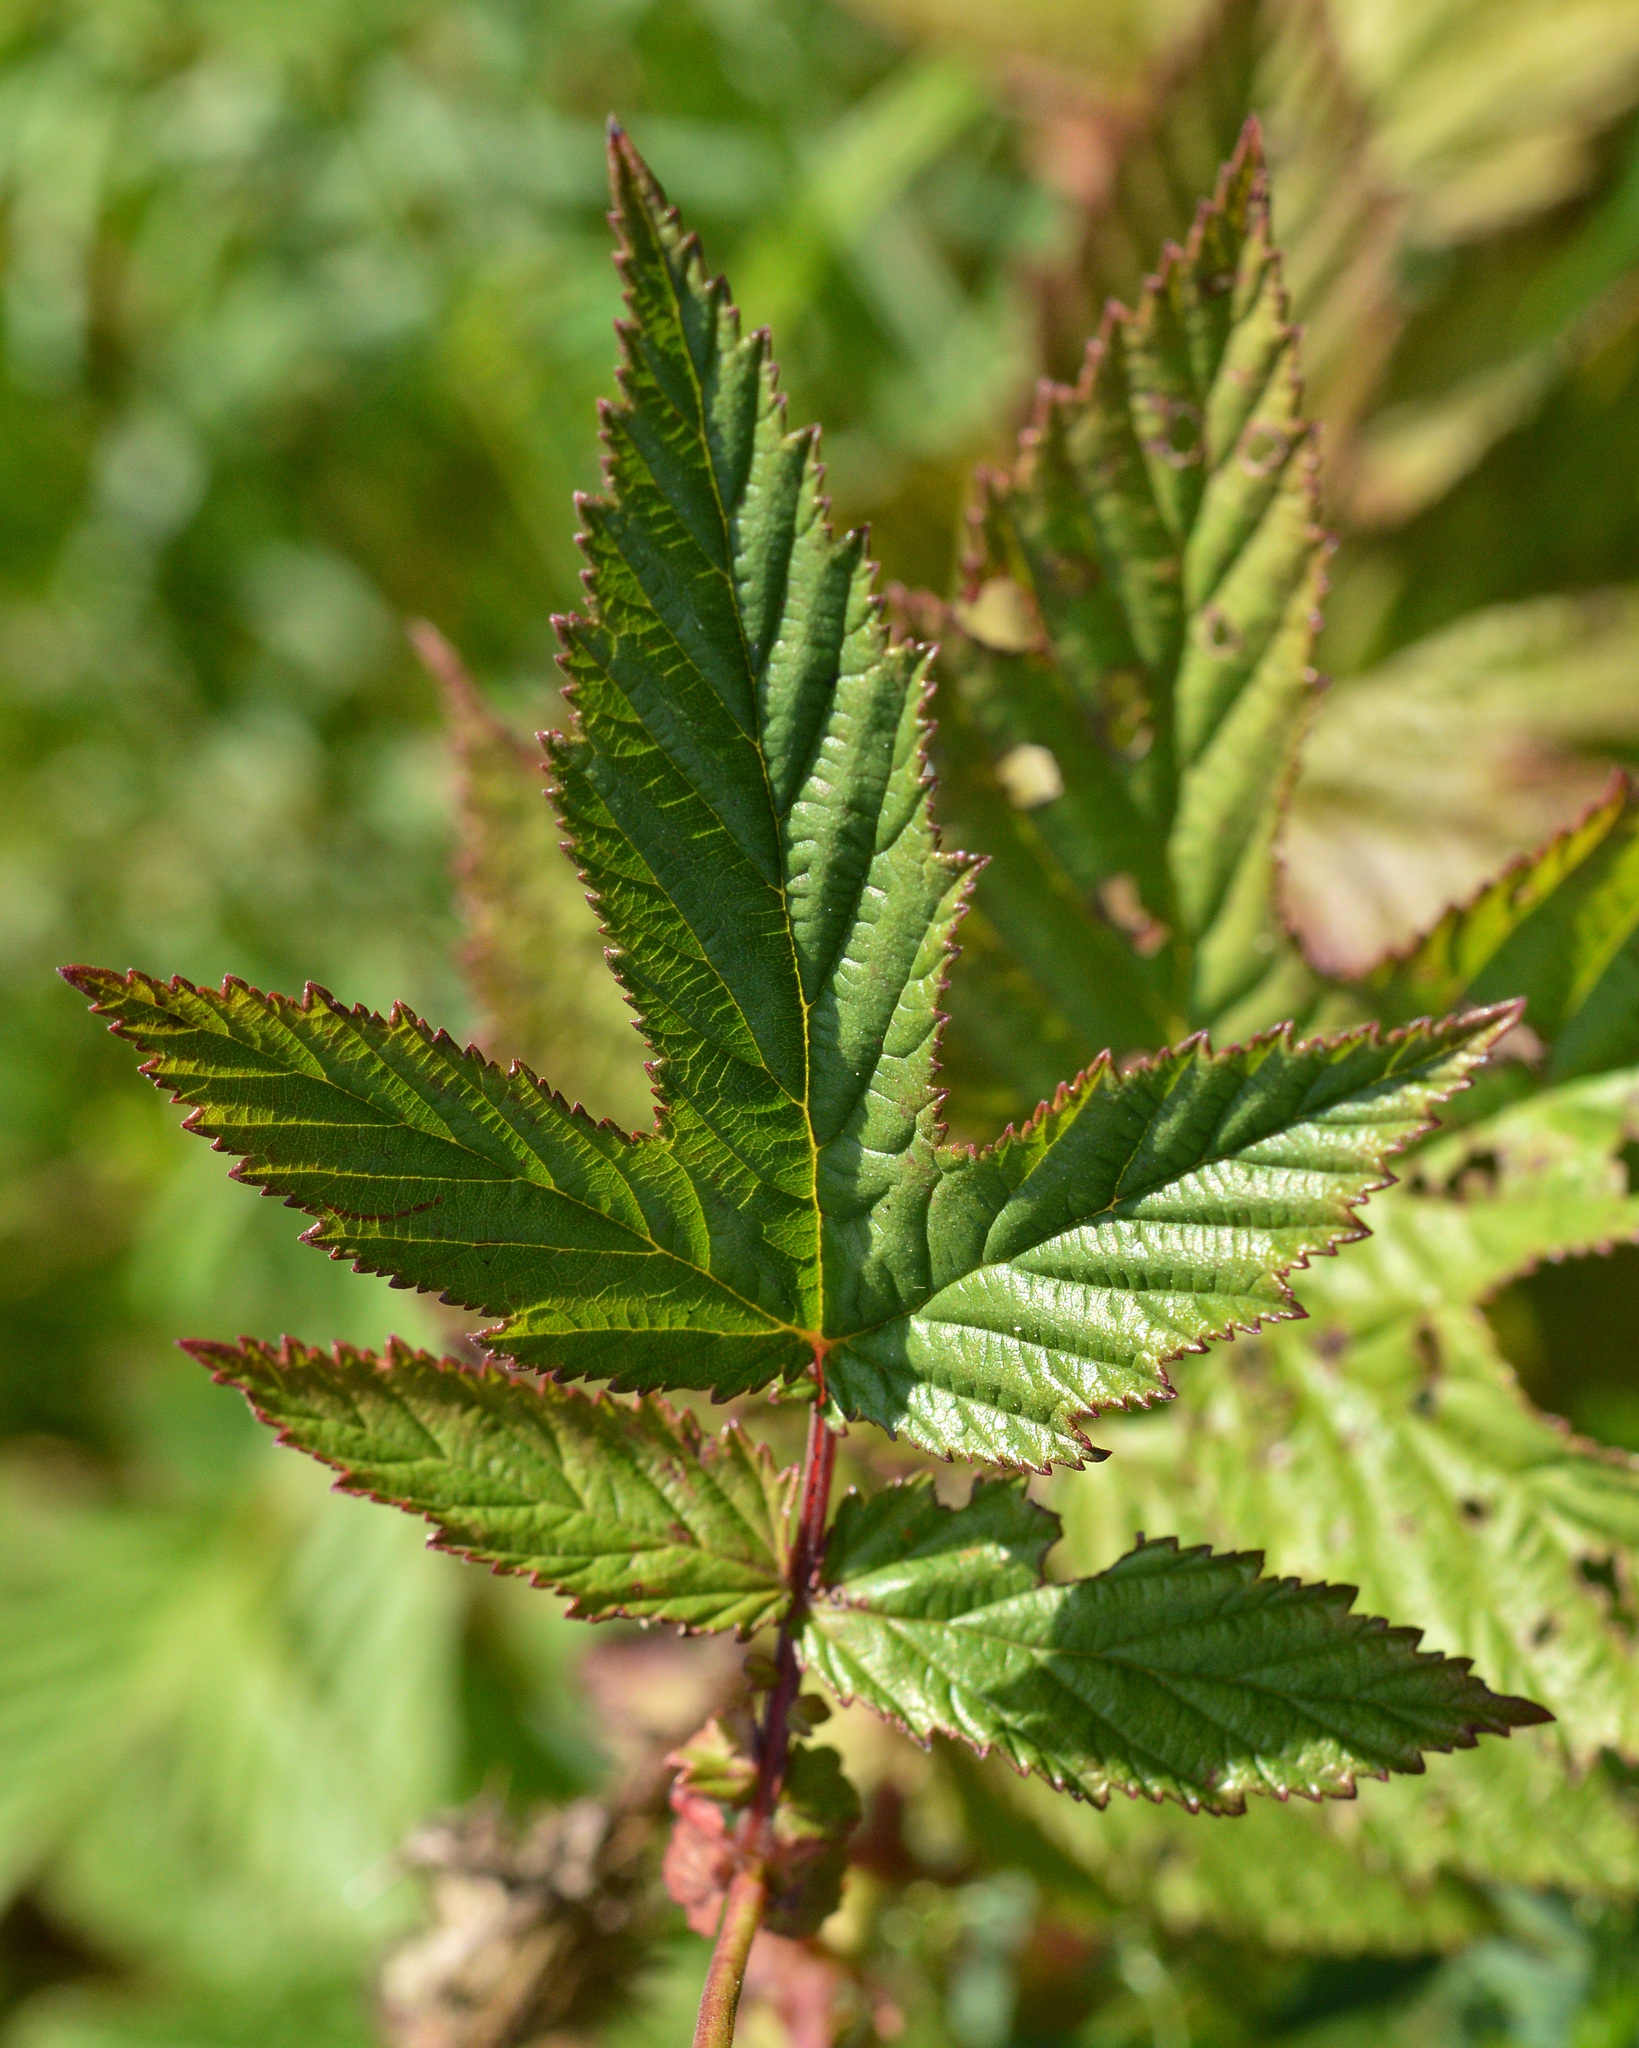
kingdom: Plantae
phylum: Tracheophyta
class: Magnoliopsida
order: Rosales
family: Rosaceae
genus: Filipendula
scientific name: Filipendula ulmaria
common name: Meadowsweet
